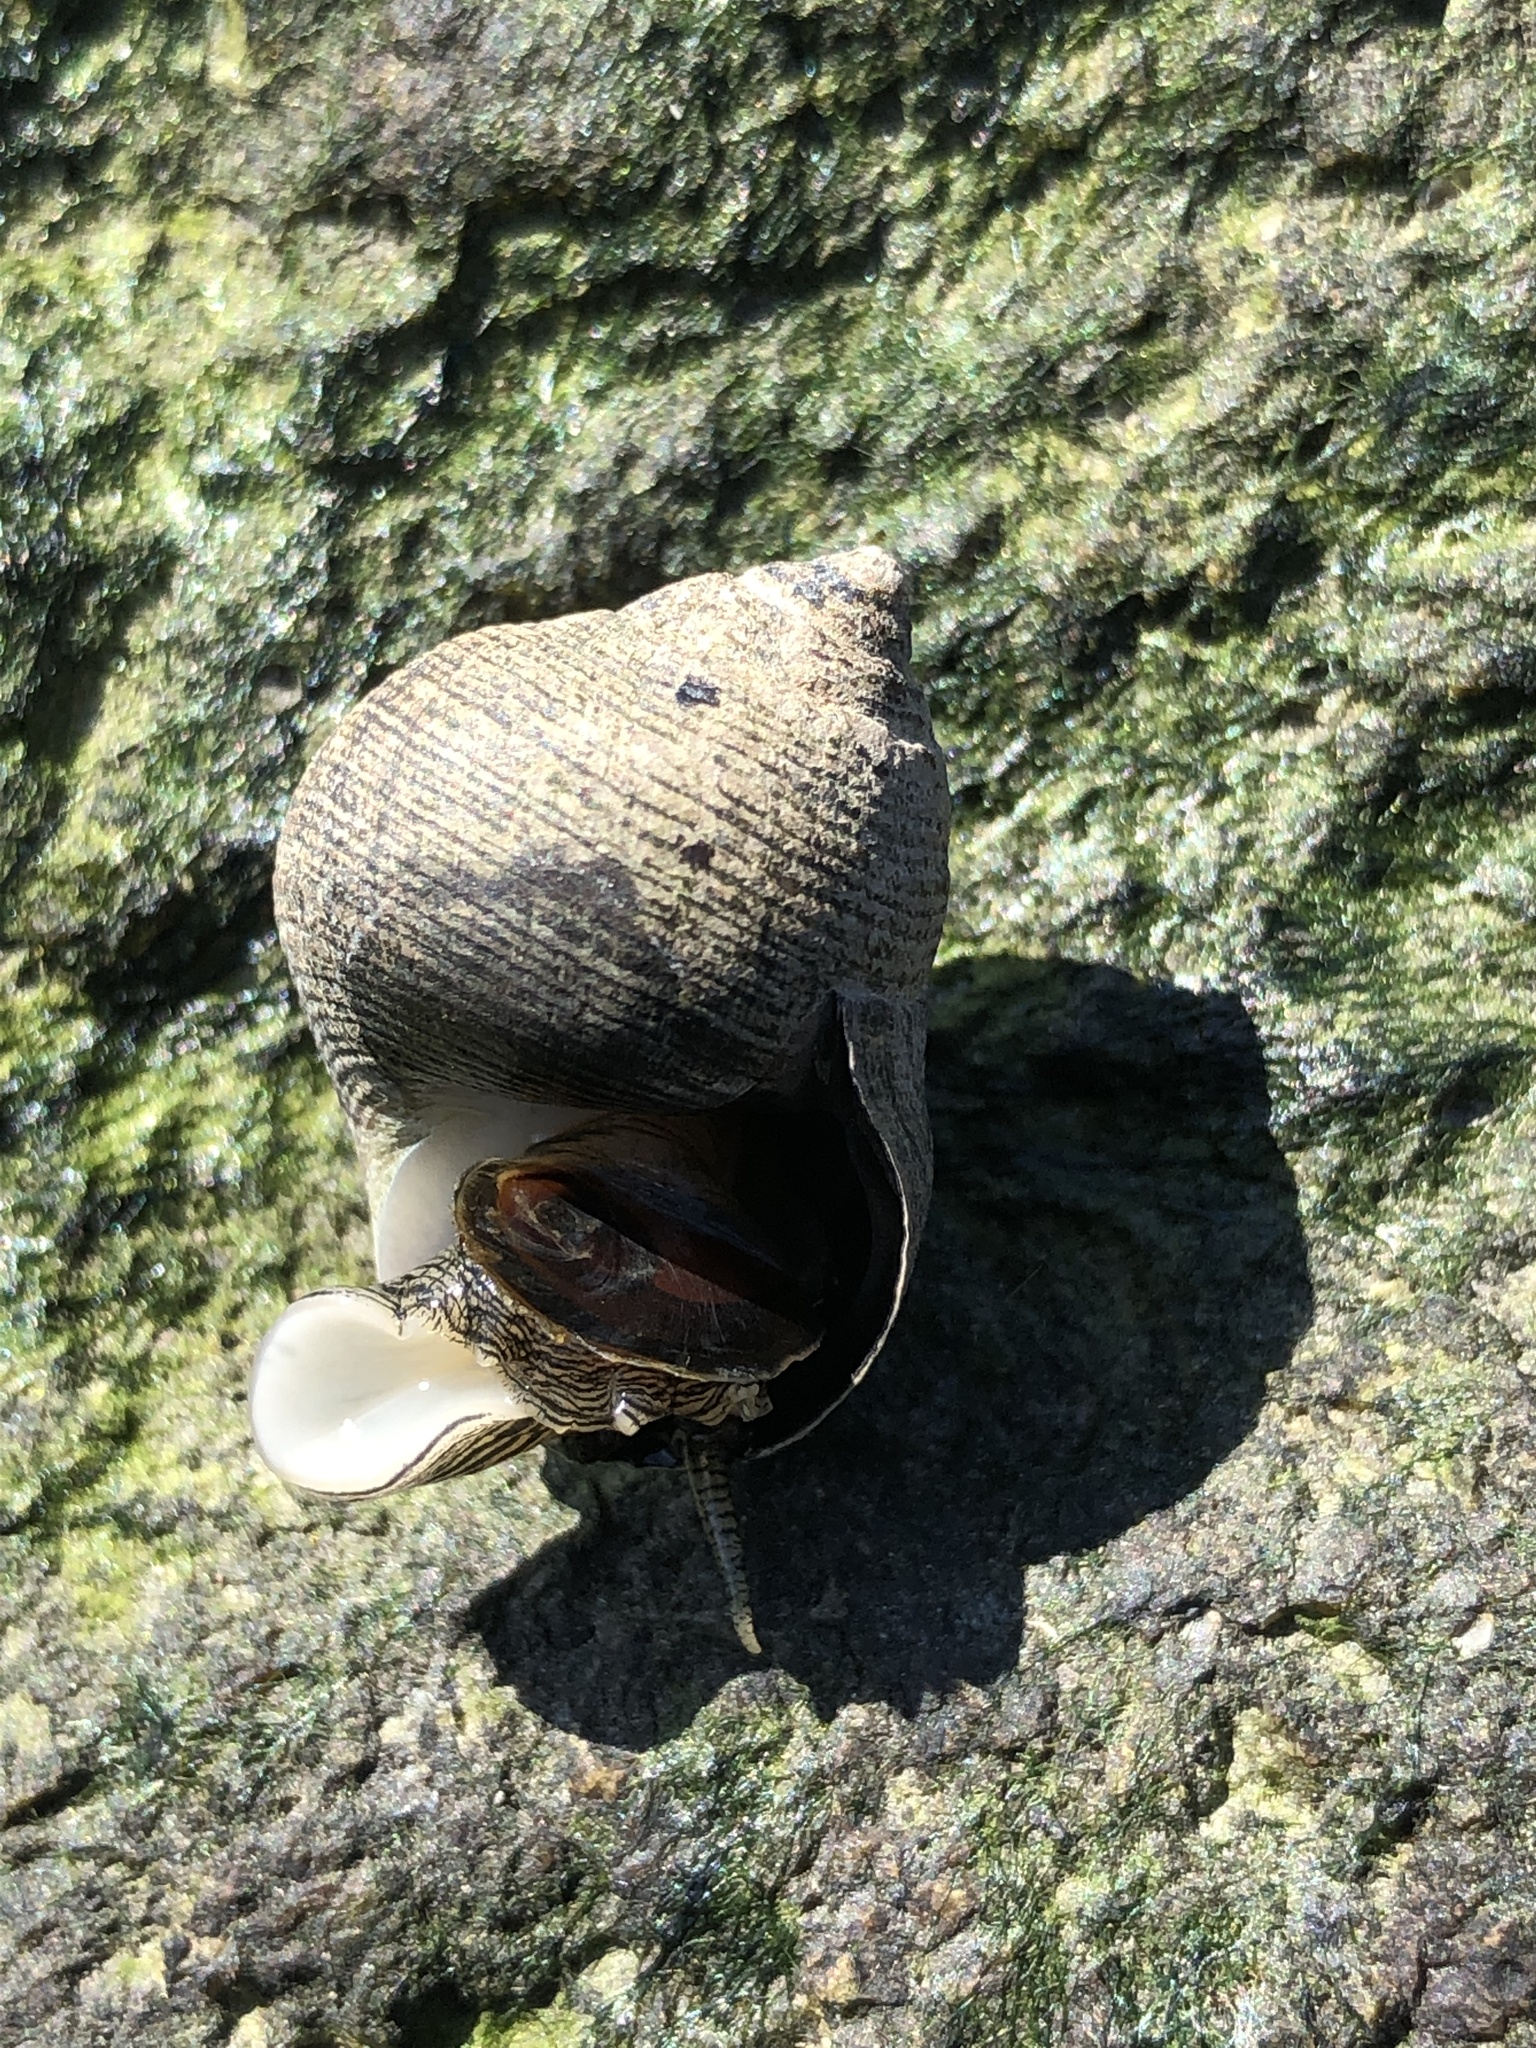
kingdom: Animalia
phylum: Mollusca
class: Gastropoda
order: Littorinimorpha
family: Littorinidae
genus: Littorina
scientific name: Littorina littorea
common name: Common periwinkle
